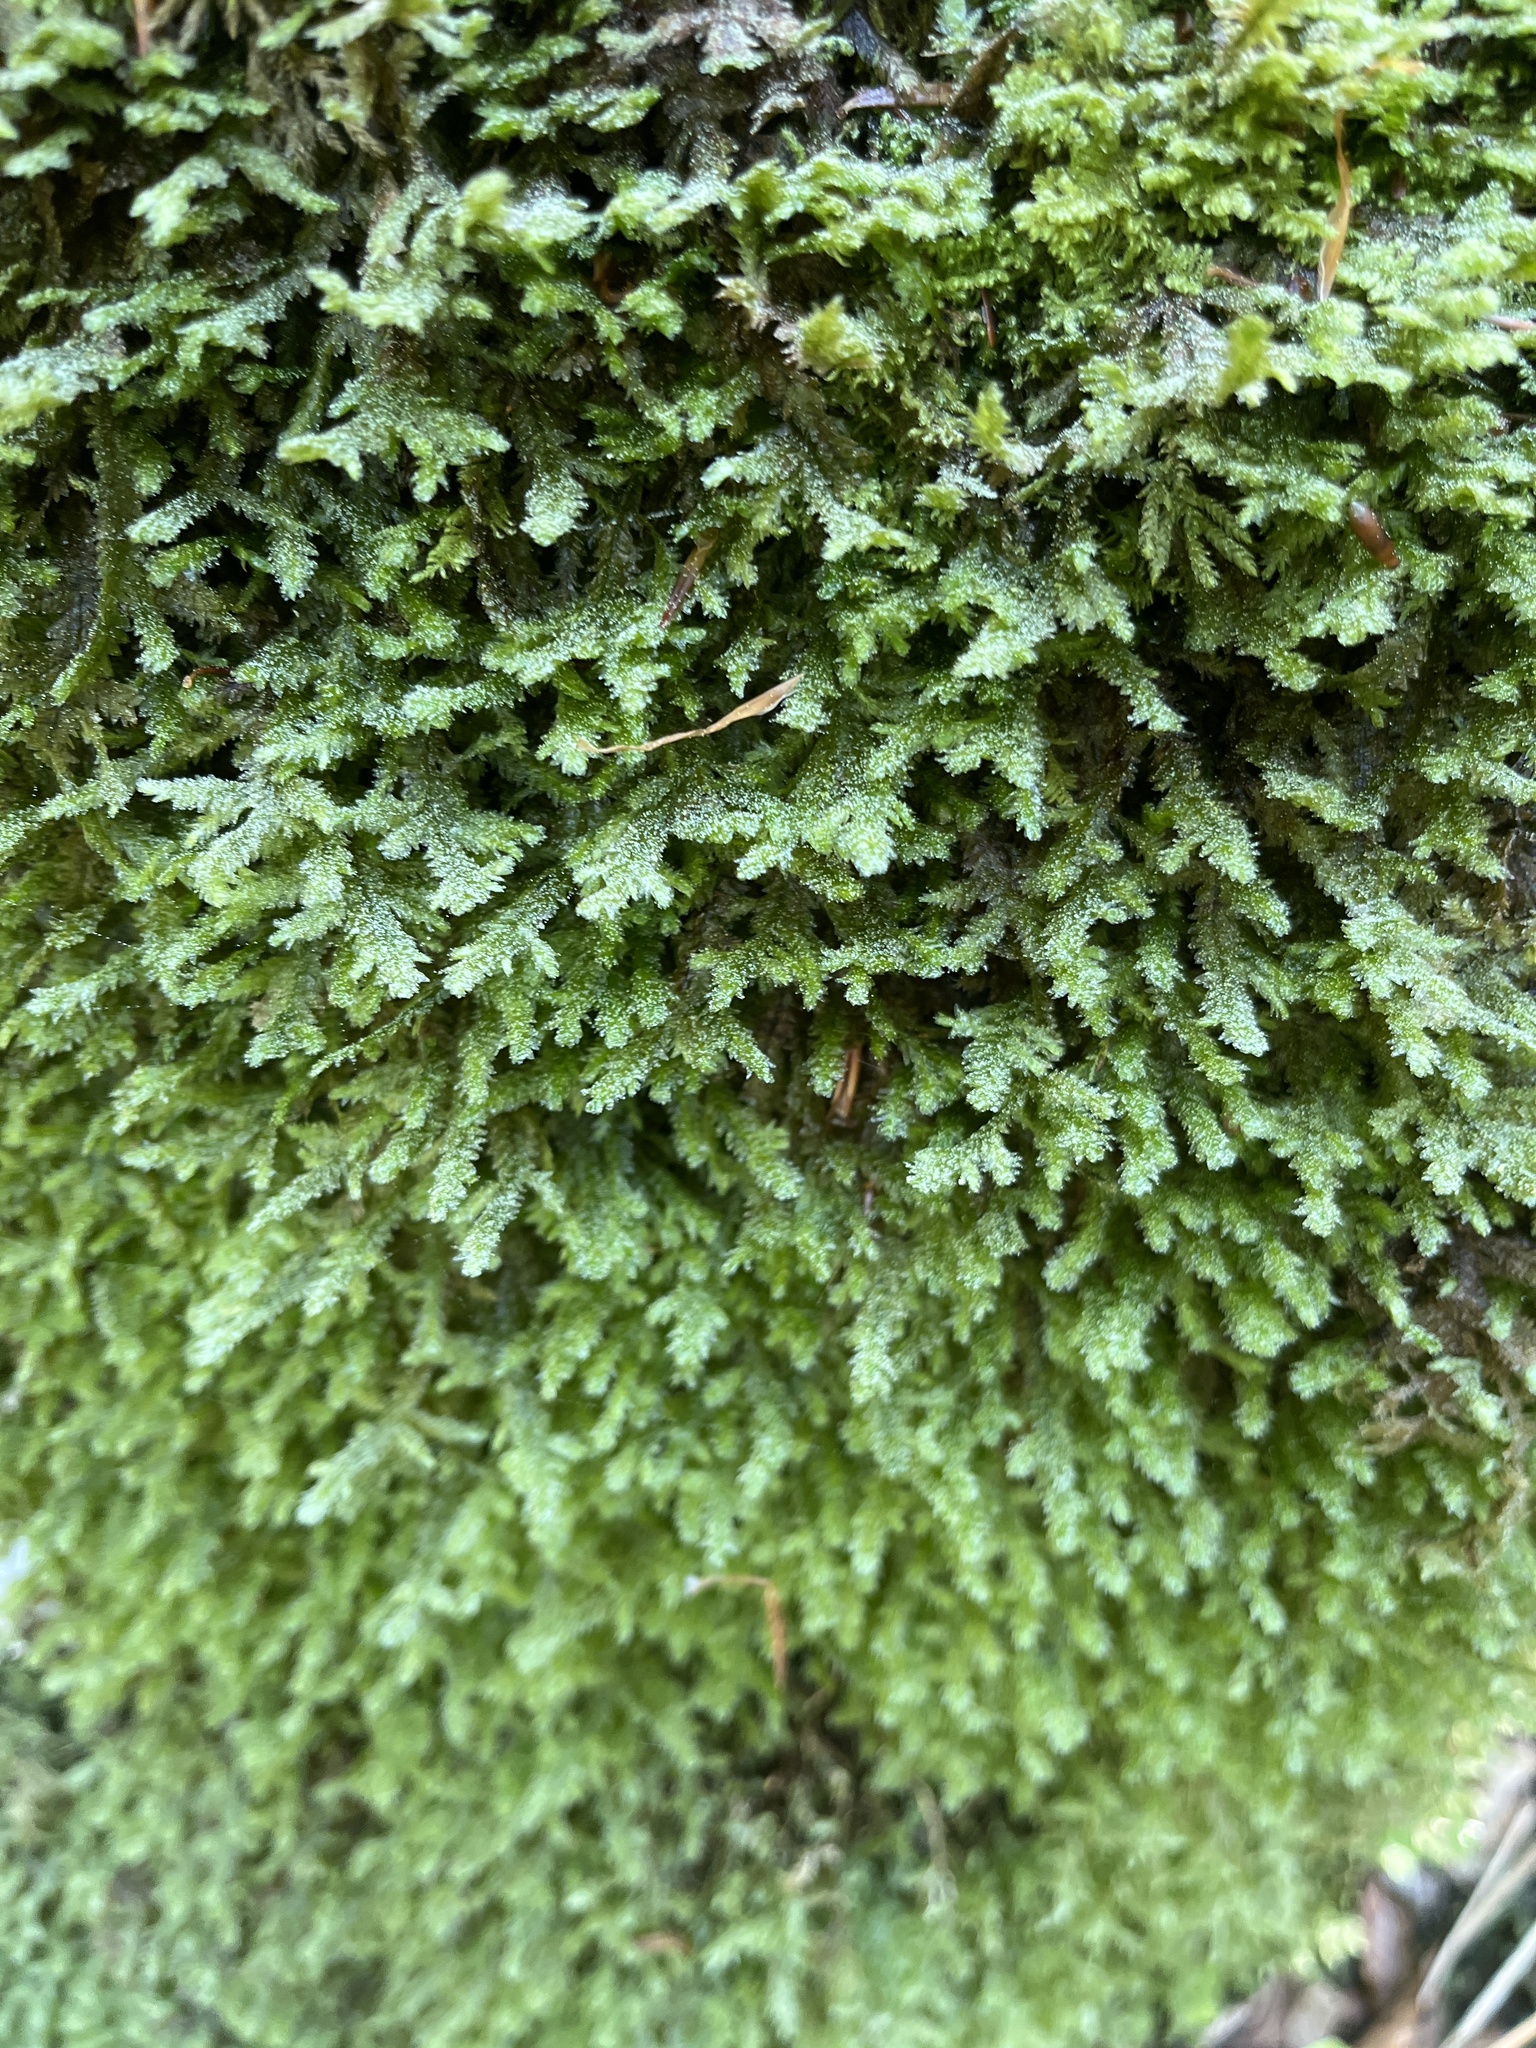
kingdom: Plantae
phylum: Bryophyta
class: Bryopsida
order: Hypnales
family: Neckeraceae
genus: Exsertotheca
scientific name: Exsertotheca crispa
